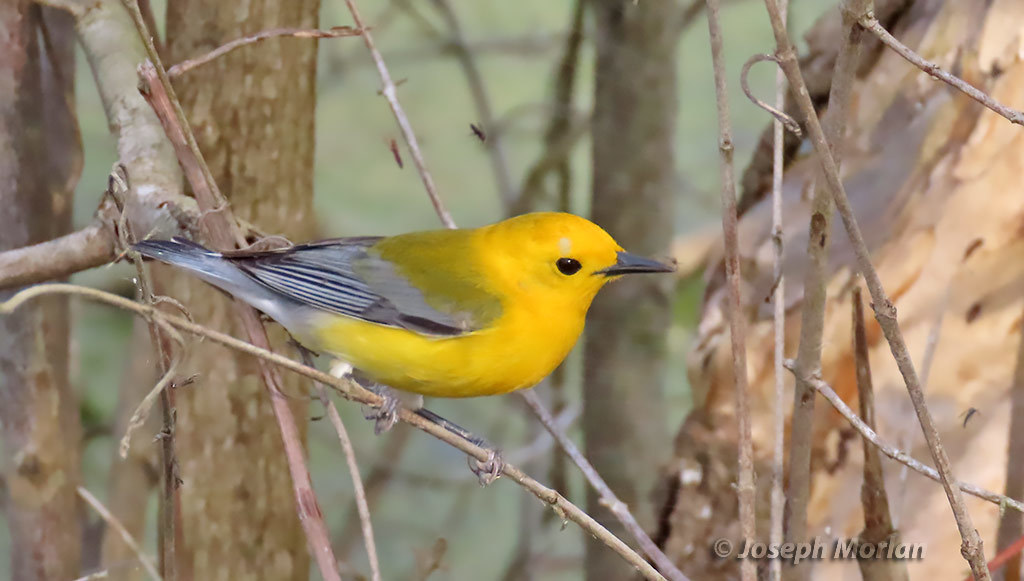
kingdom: Animalia
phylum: Chordata
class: Aves
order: Passeriformes
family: Parulidae
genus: Protonotaria
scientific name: Protonotaria citrea
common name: Prothonotary warbler
